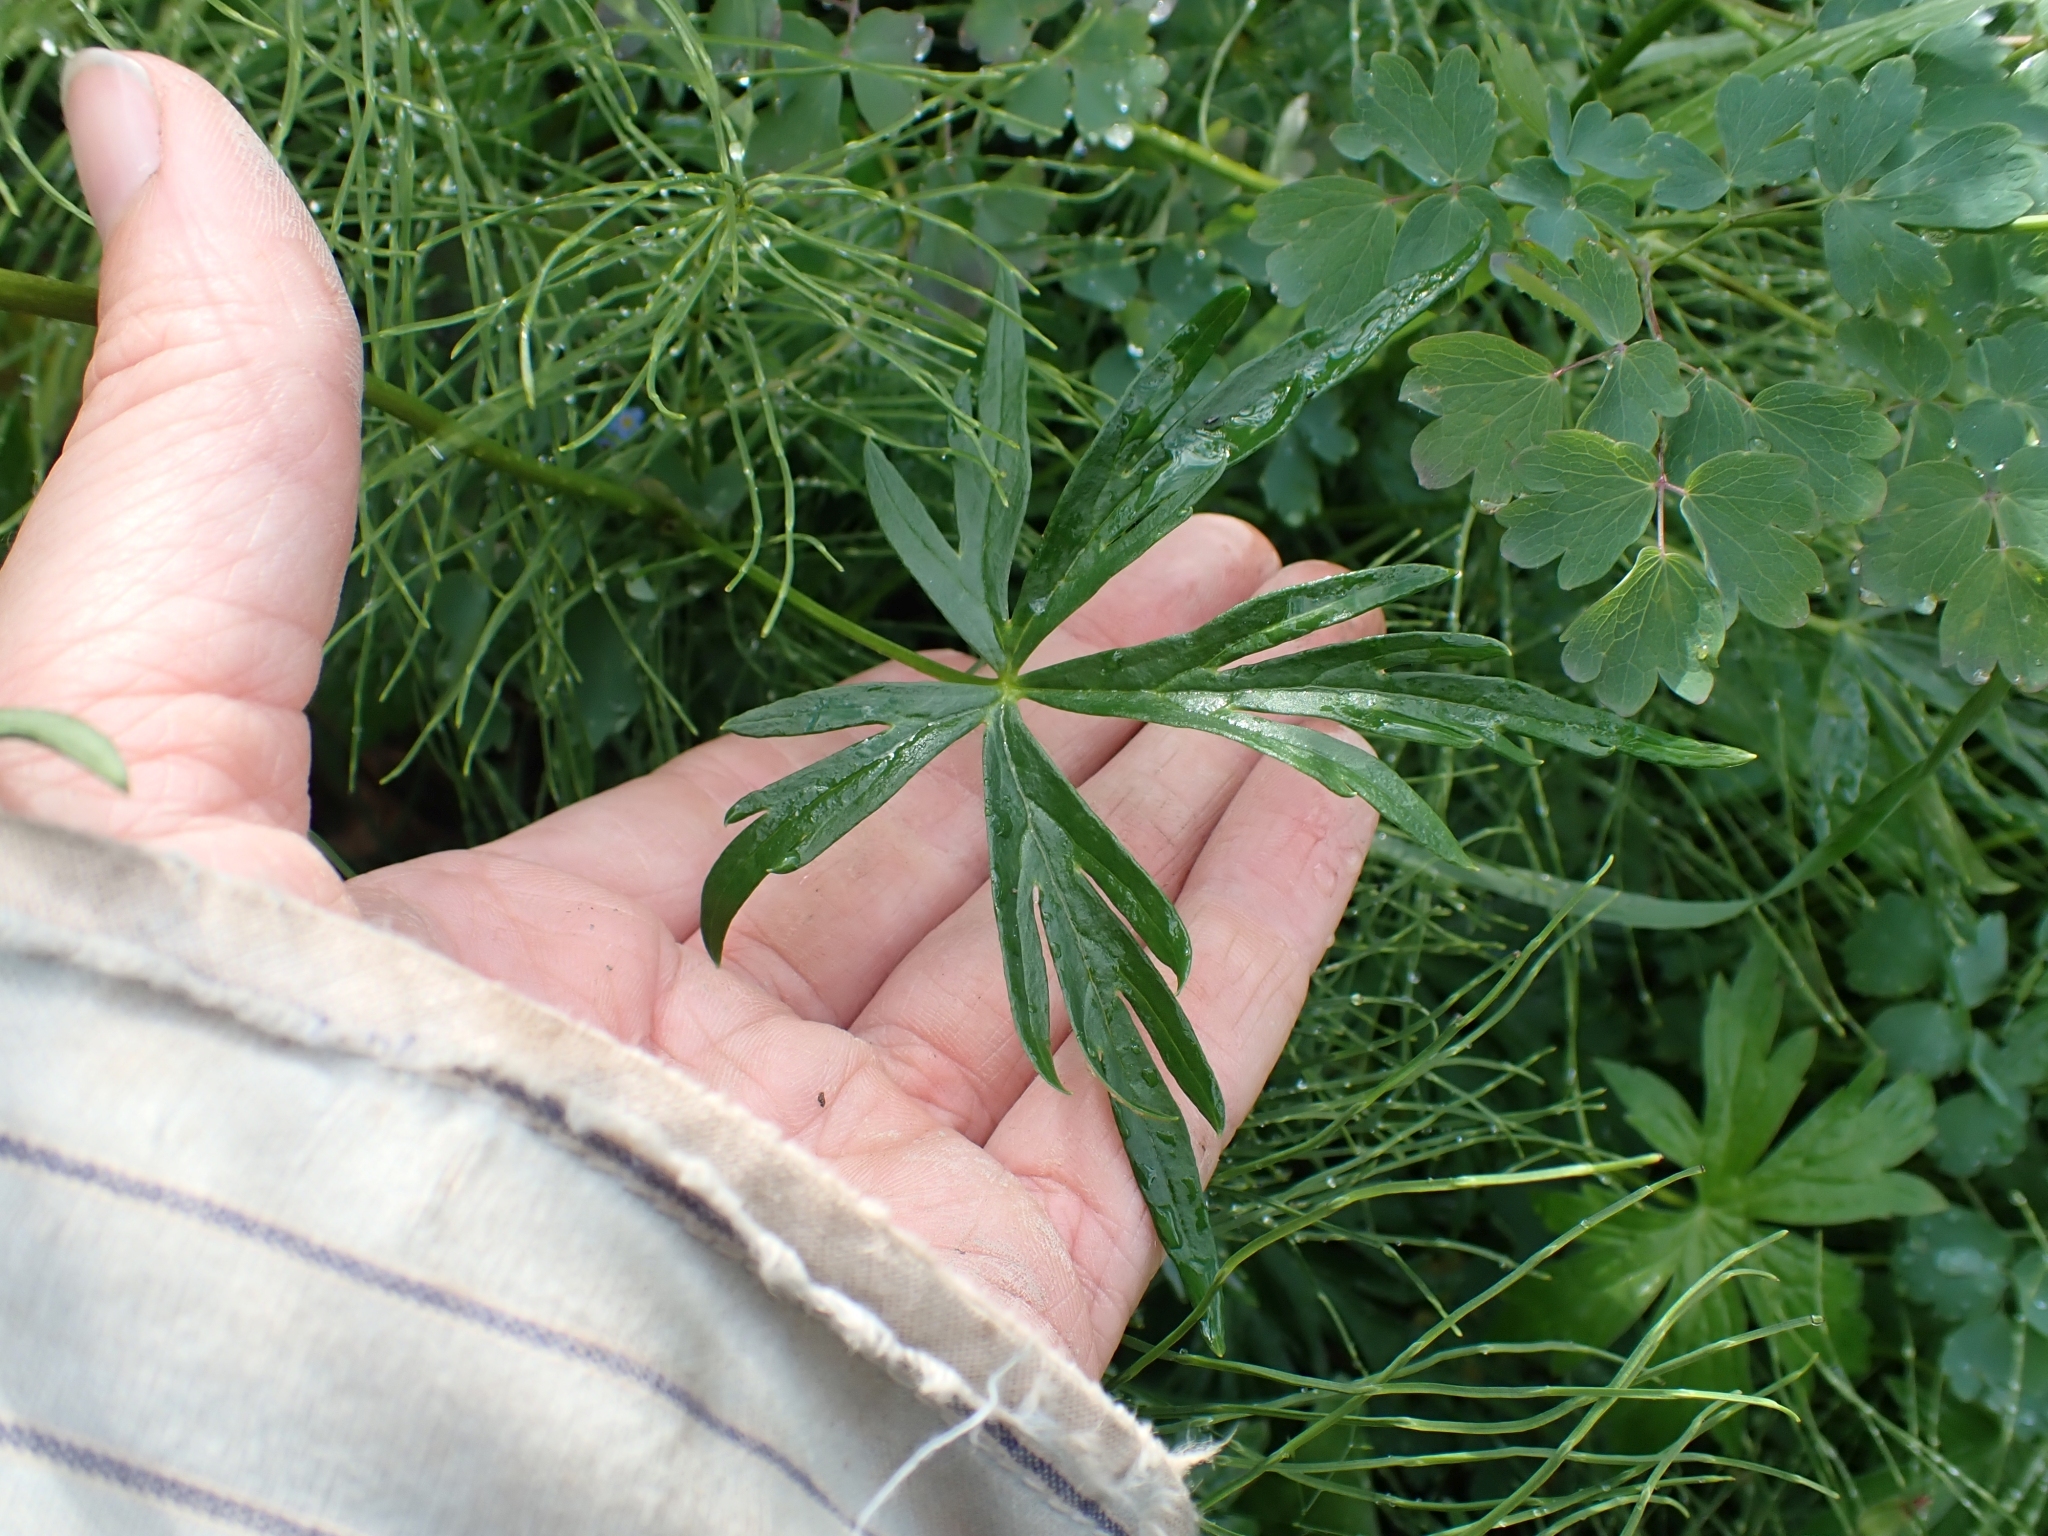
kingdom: Plantae
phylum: Tracheophyta
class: Magnoliopsida
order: Ranunculales
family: Ranunculaceae
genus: Aconitum
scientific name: Aconitum delphiniifolium
